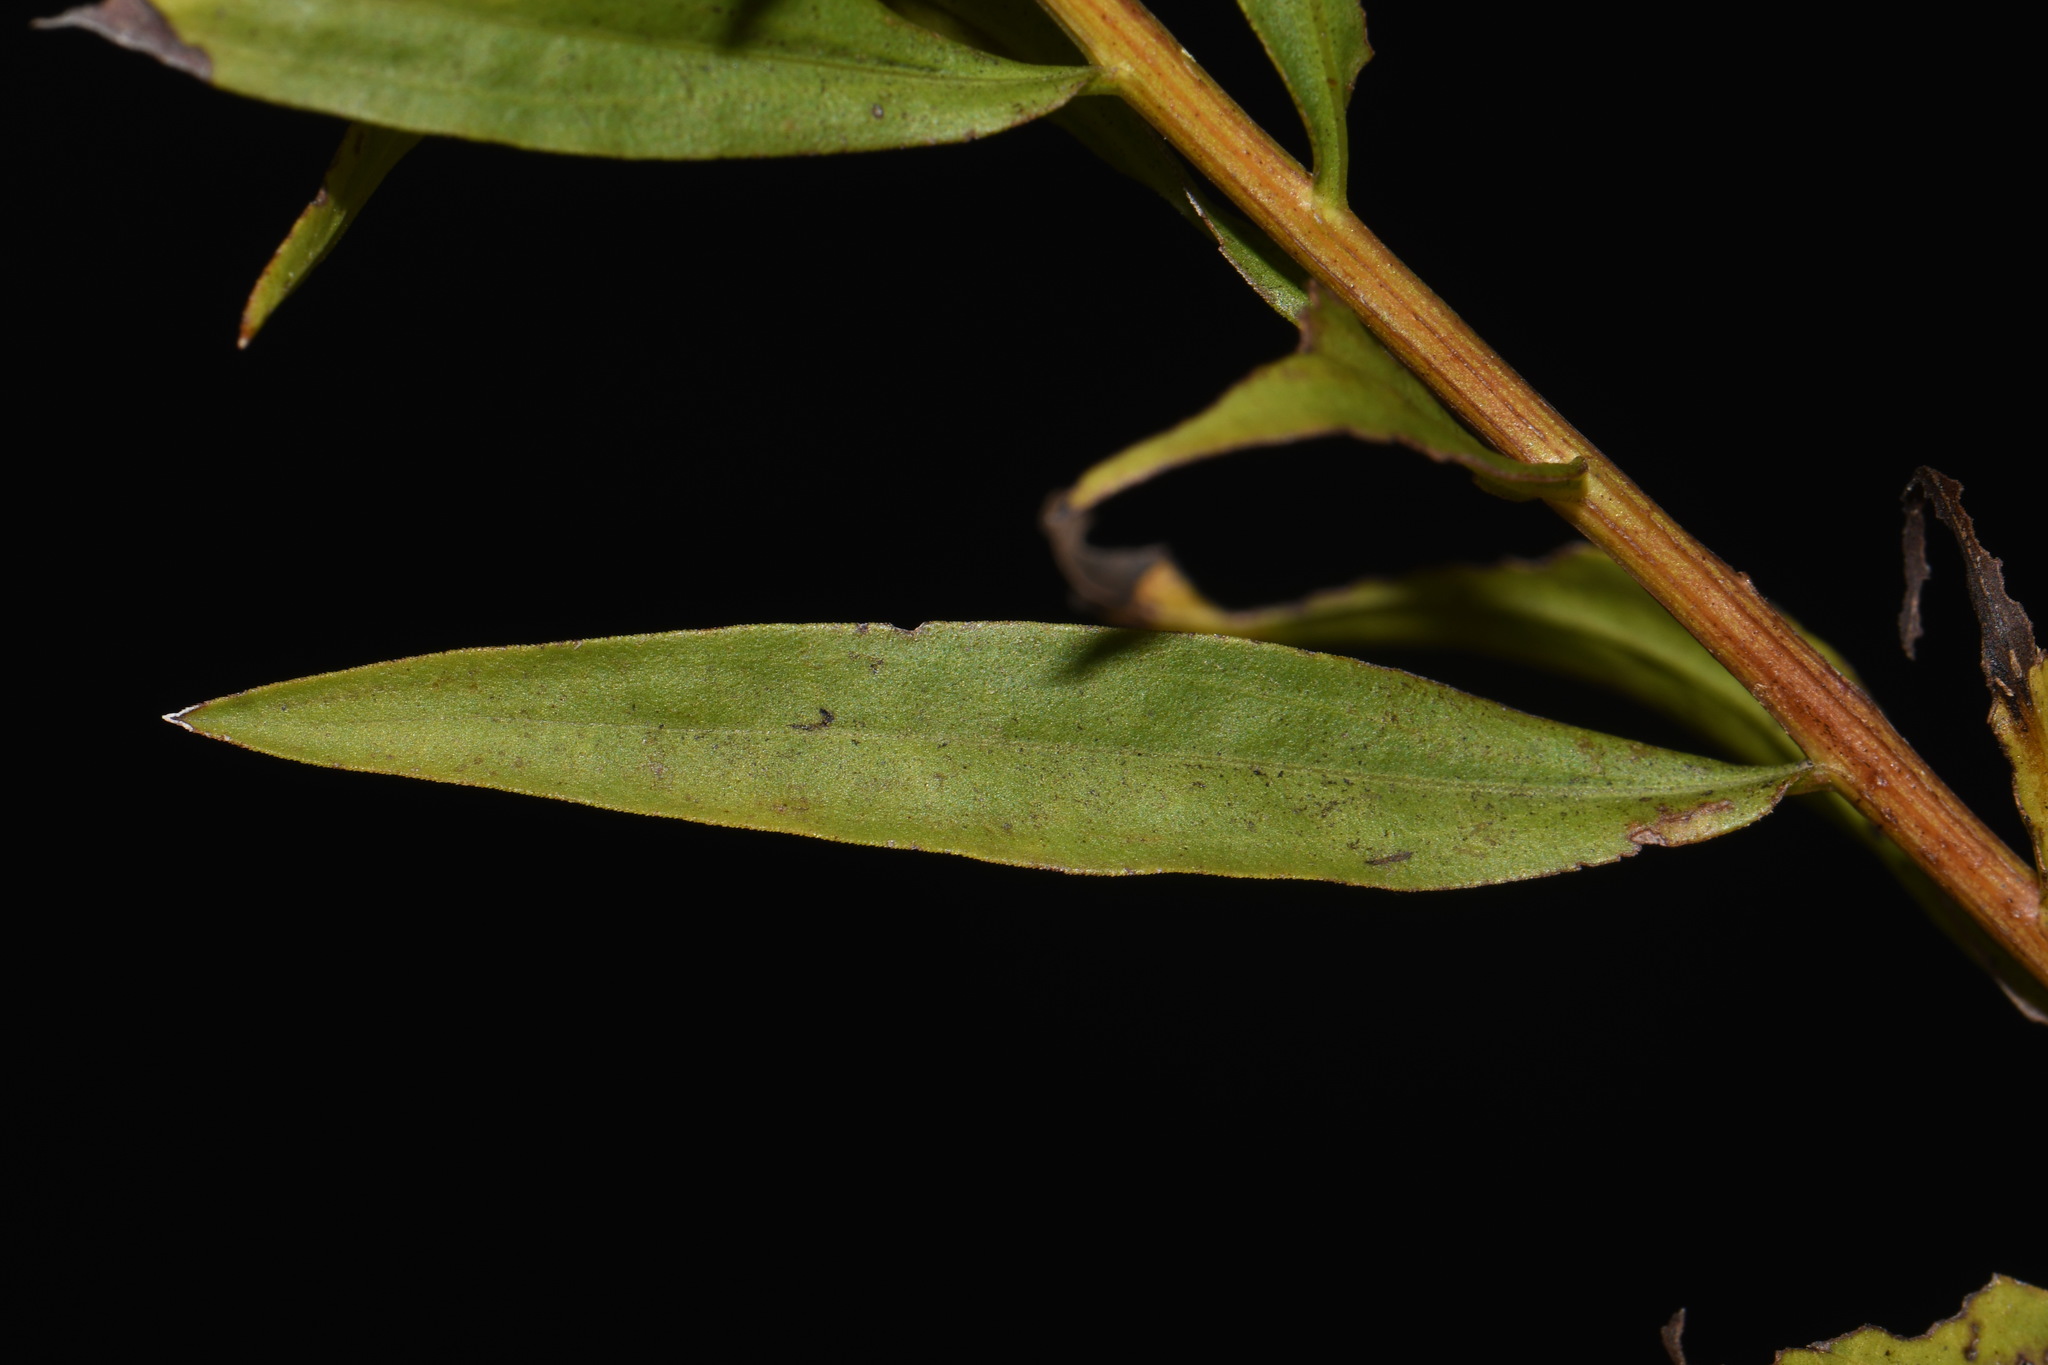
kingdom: Plantae
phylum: Tracheophyta
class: Magnoliopsida
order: Asterales
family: Asteraceae
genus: Euthamia
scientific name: Euthamia leptocephala
